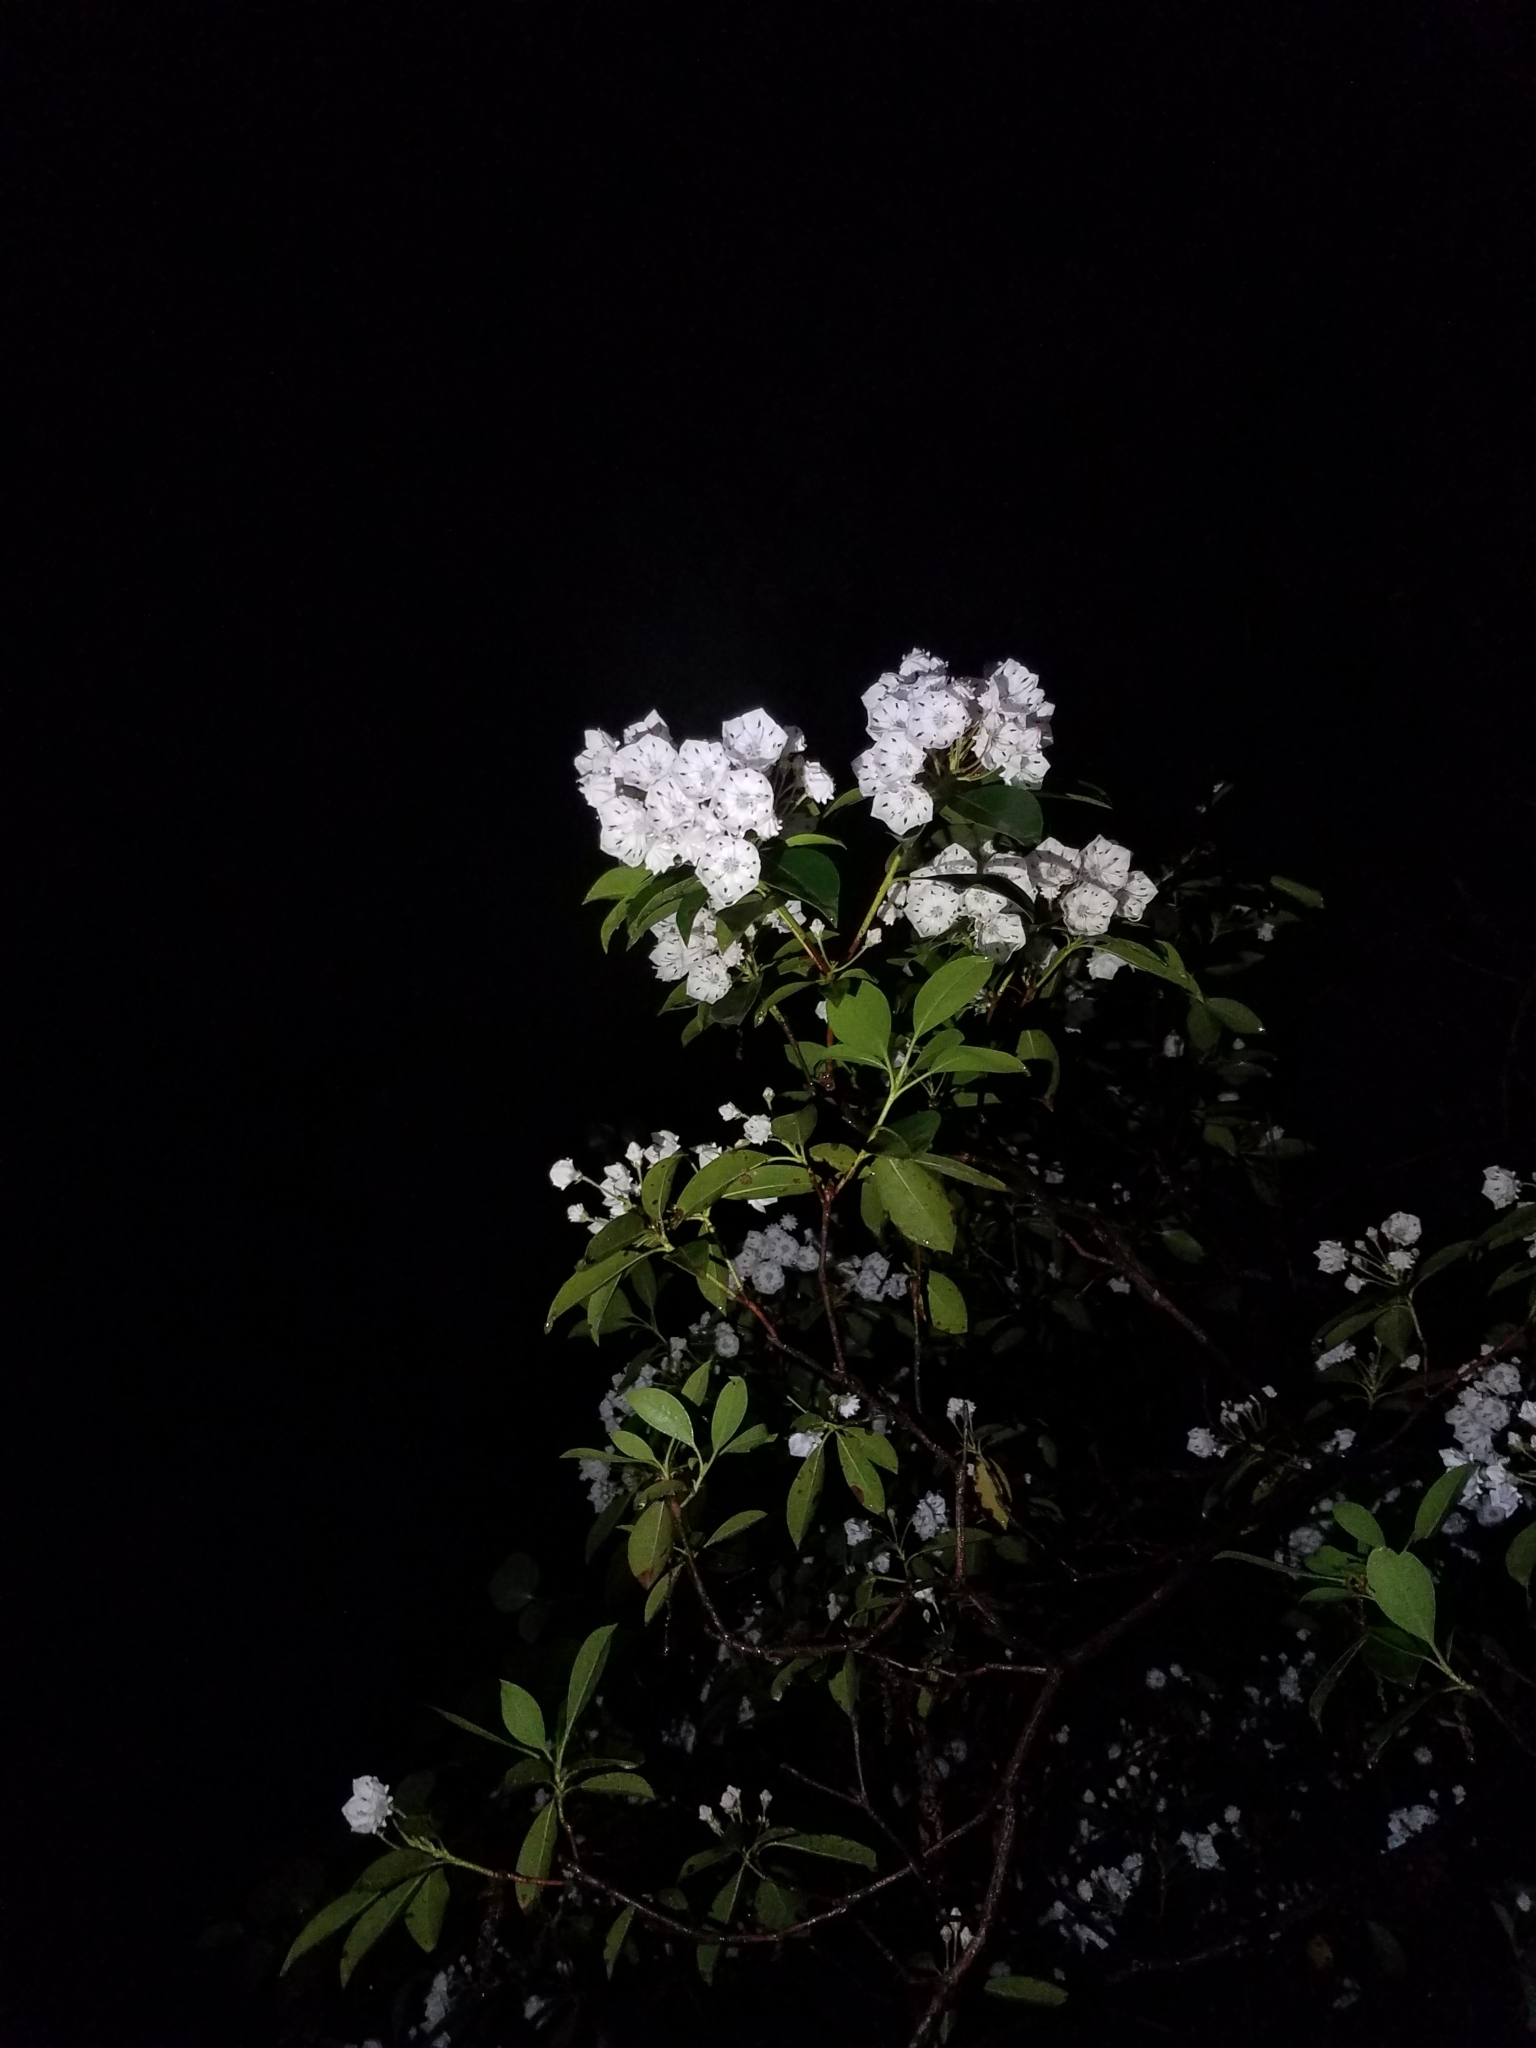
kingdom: Plantae
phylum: Tracheophyta
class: Magnoliopsida
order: Ericales
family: Ericaceae
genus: Kalmia
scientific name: Kalmia latifolia
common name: Mountain-laurel
